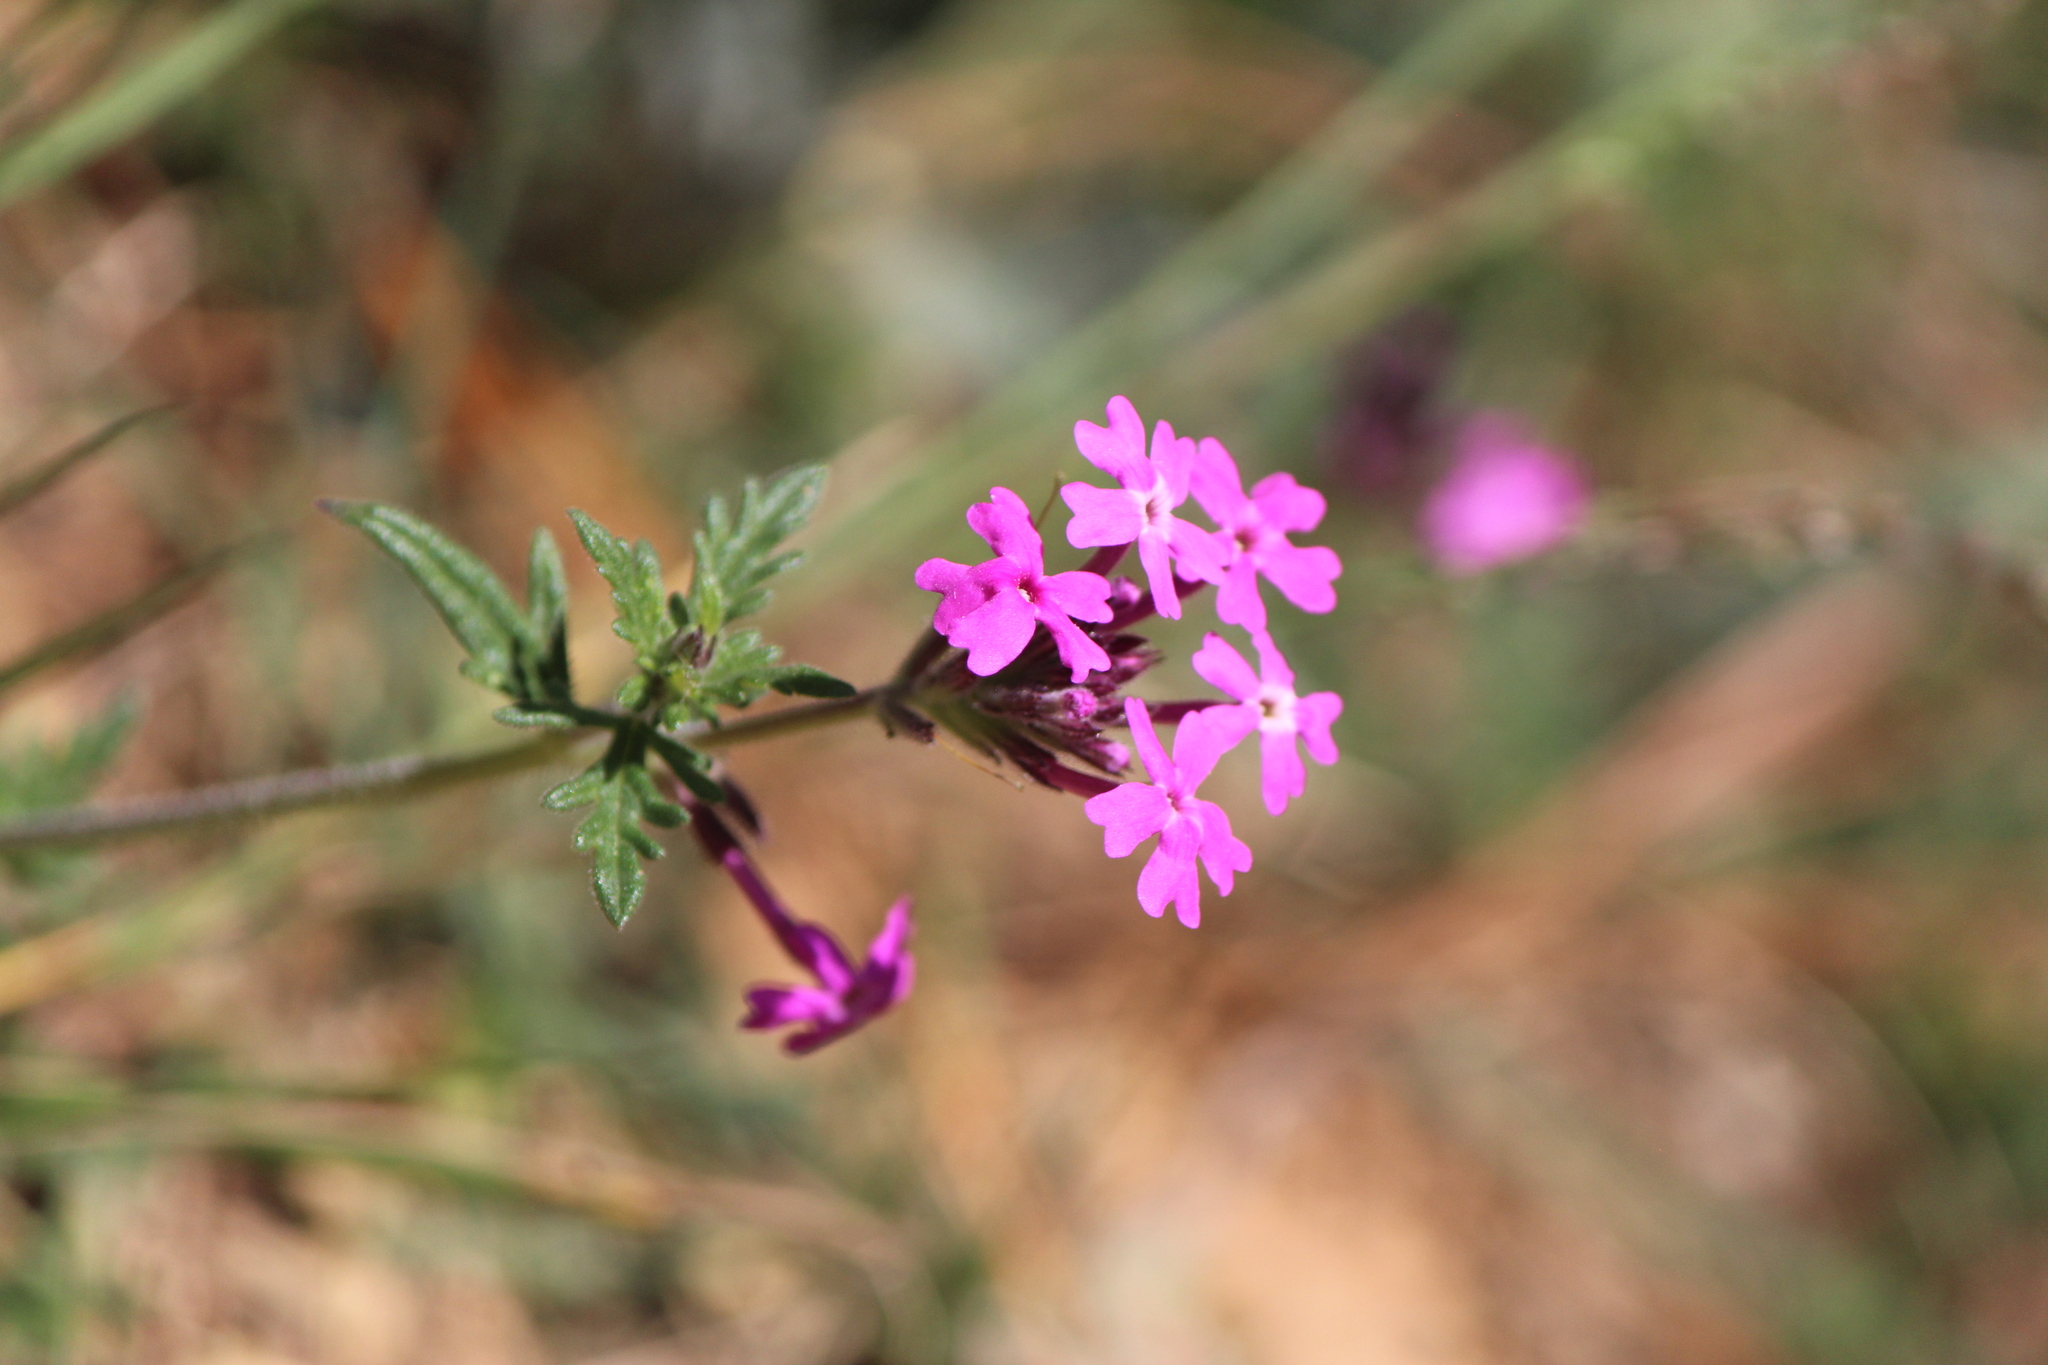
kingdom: Plantae
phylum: Tracheophyta
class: Magnoliopsida
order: Lamiales
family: Verbenaceae
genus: Verbena
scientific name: Verbena bipinnatifida
